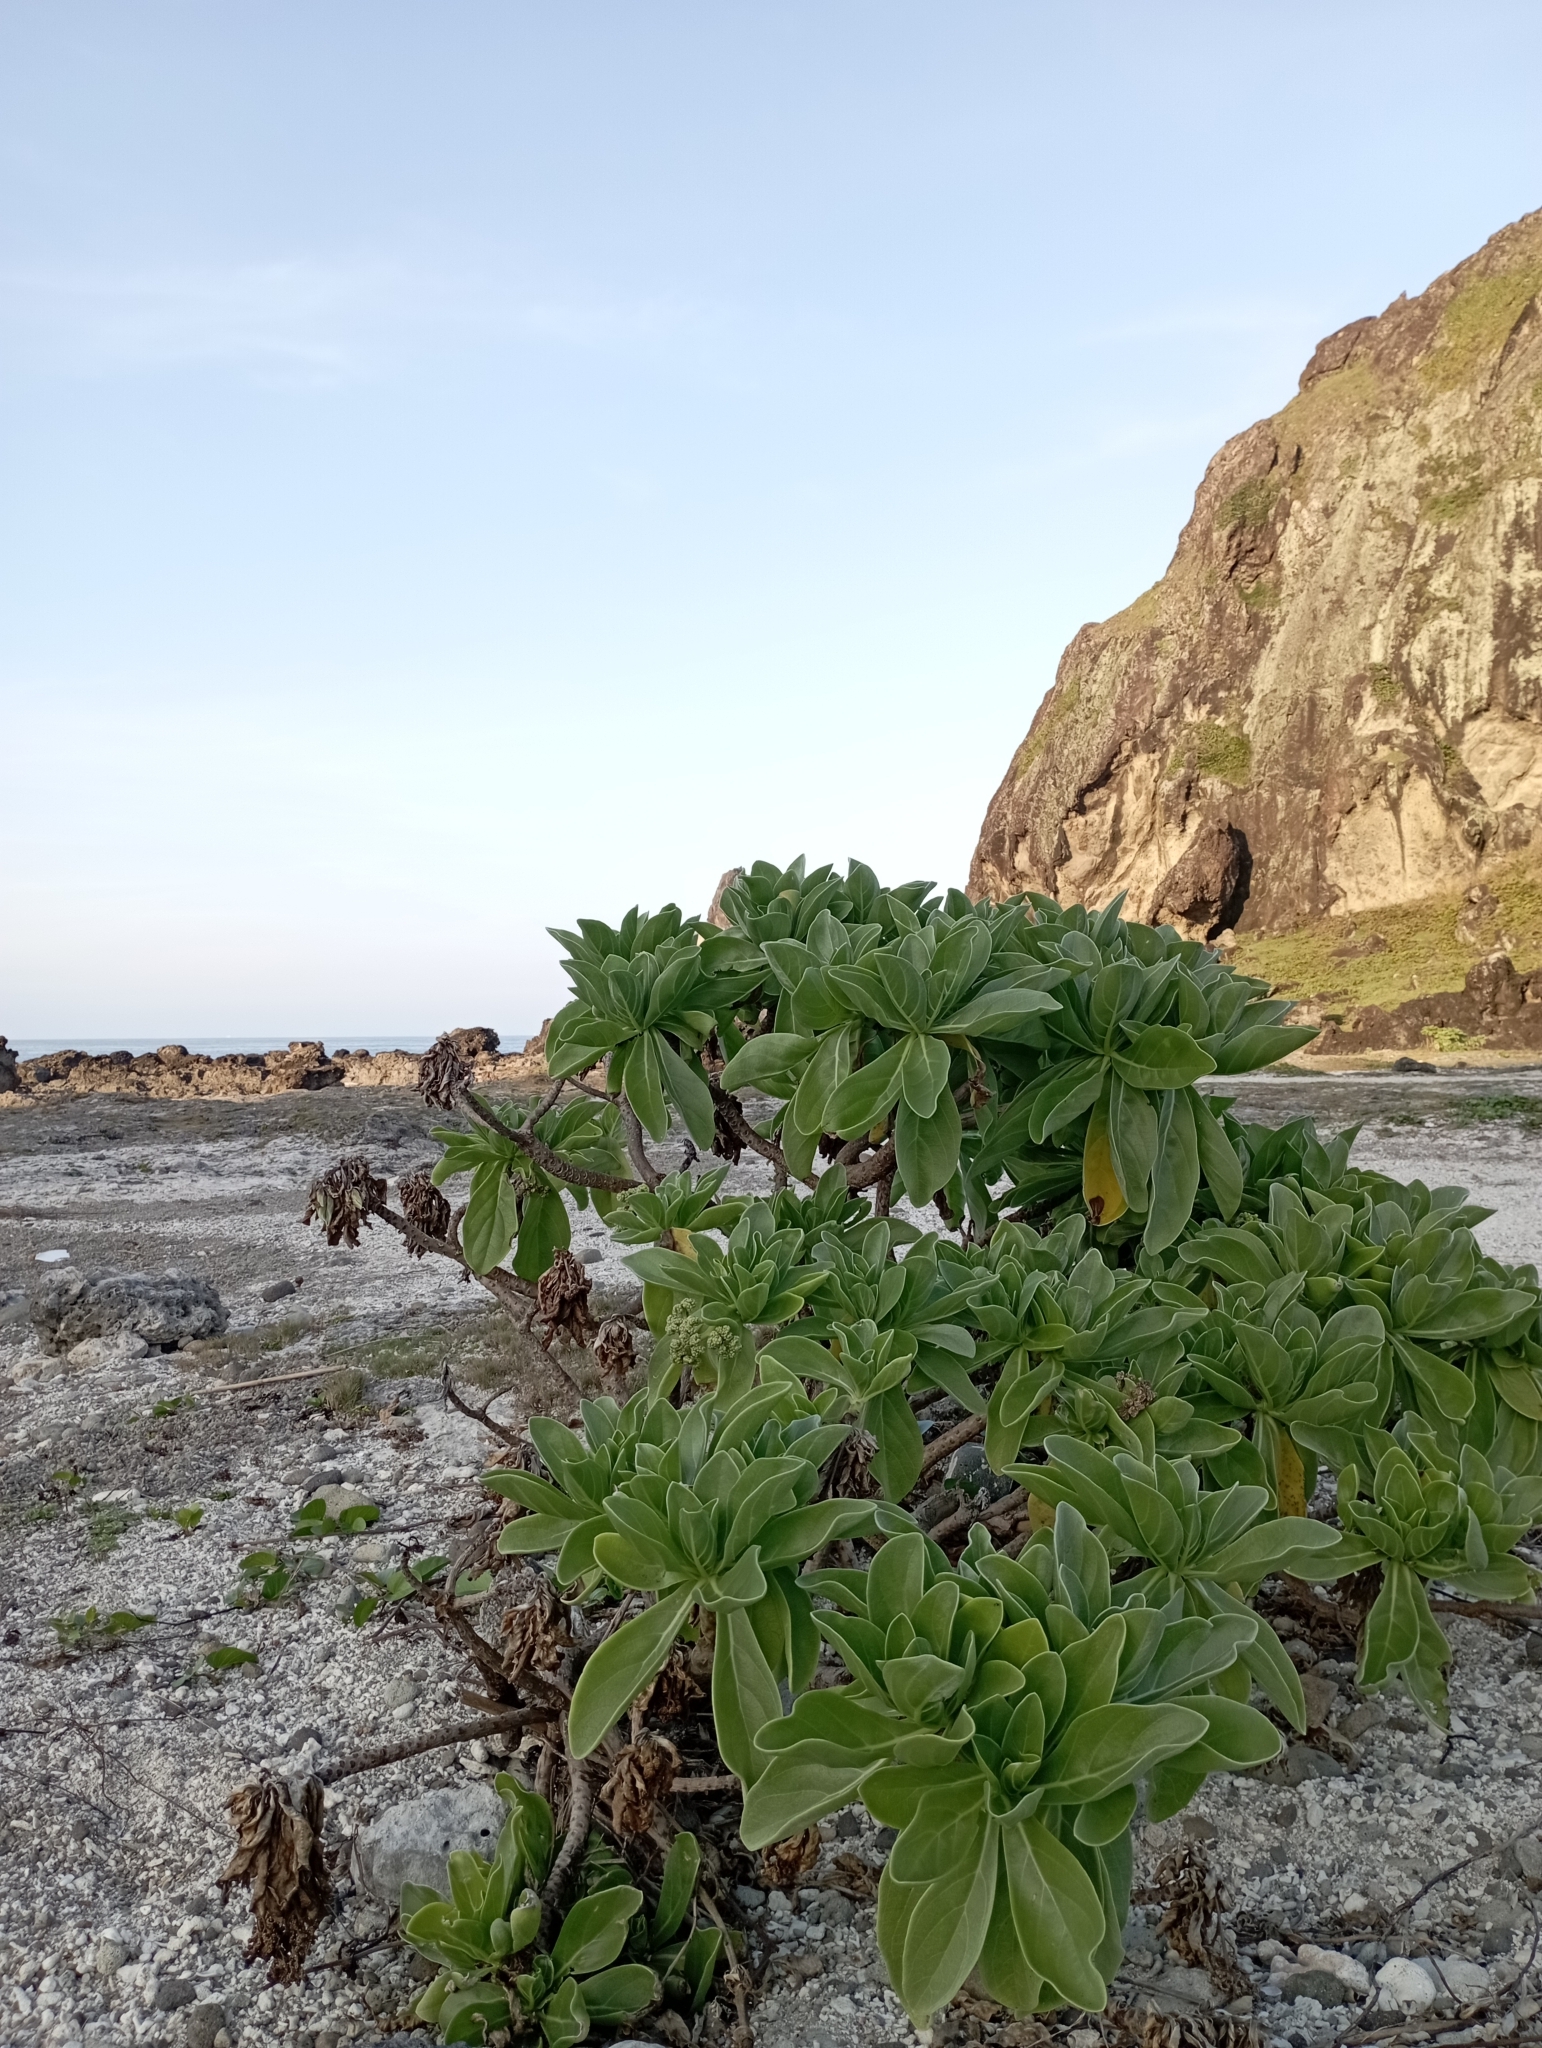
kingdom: Plantae
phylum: Tracheophyta
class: Magnoliopsida
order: Boraginales
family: Heliotropiaceae
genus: Heliotropium
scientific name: Heliotropium velutinum
